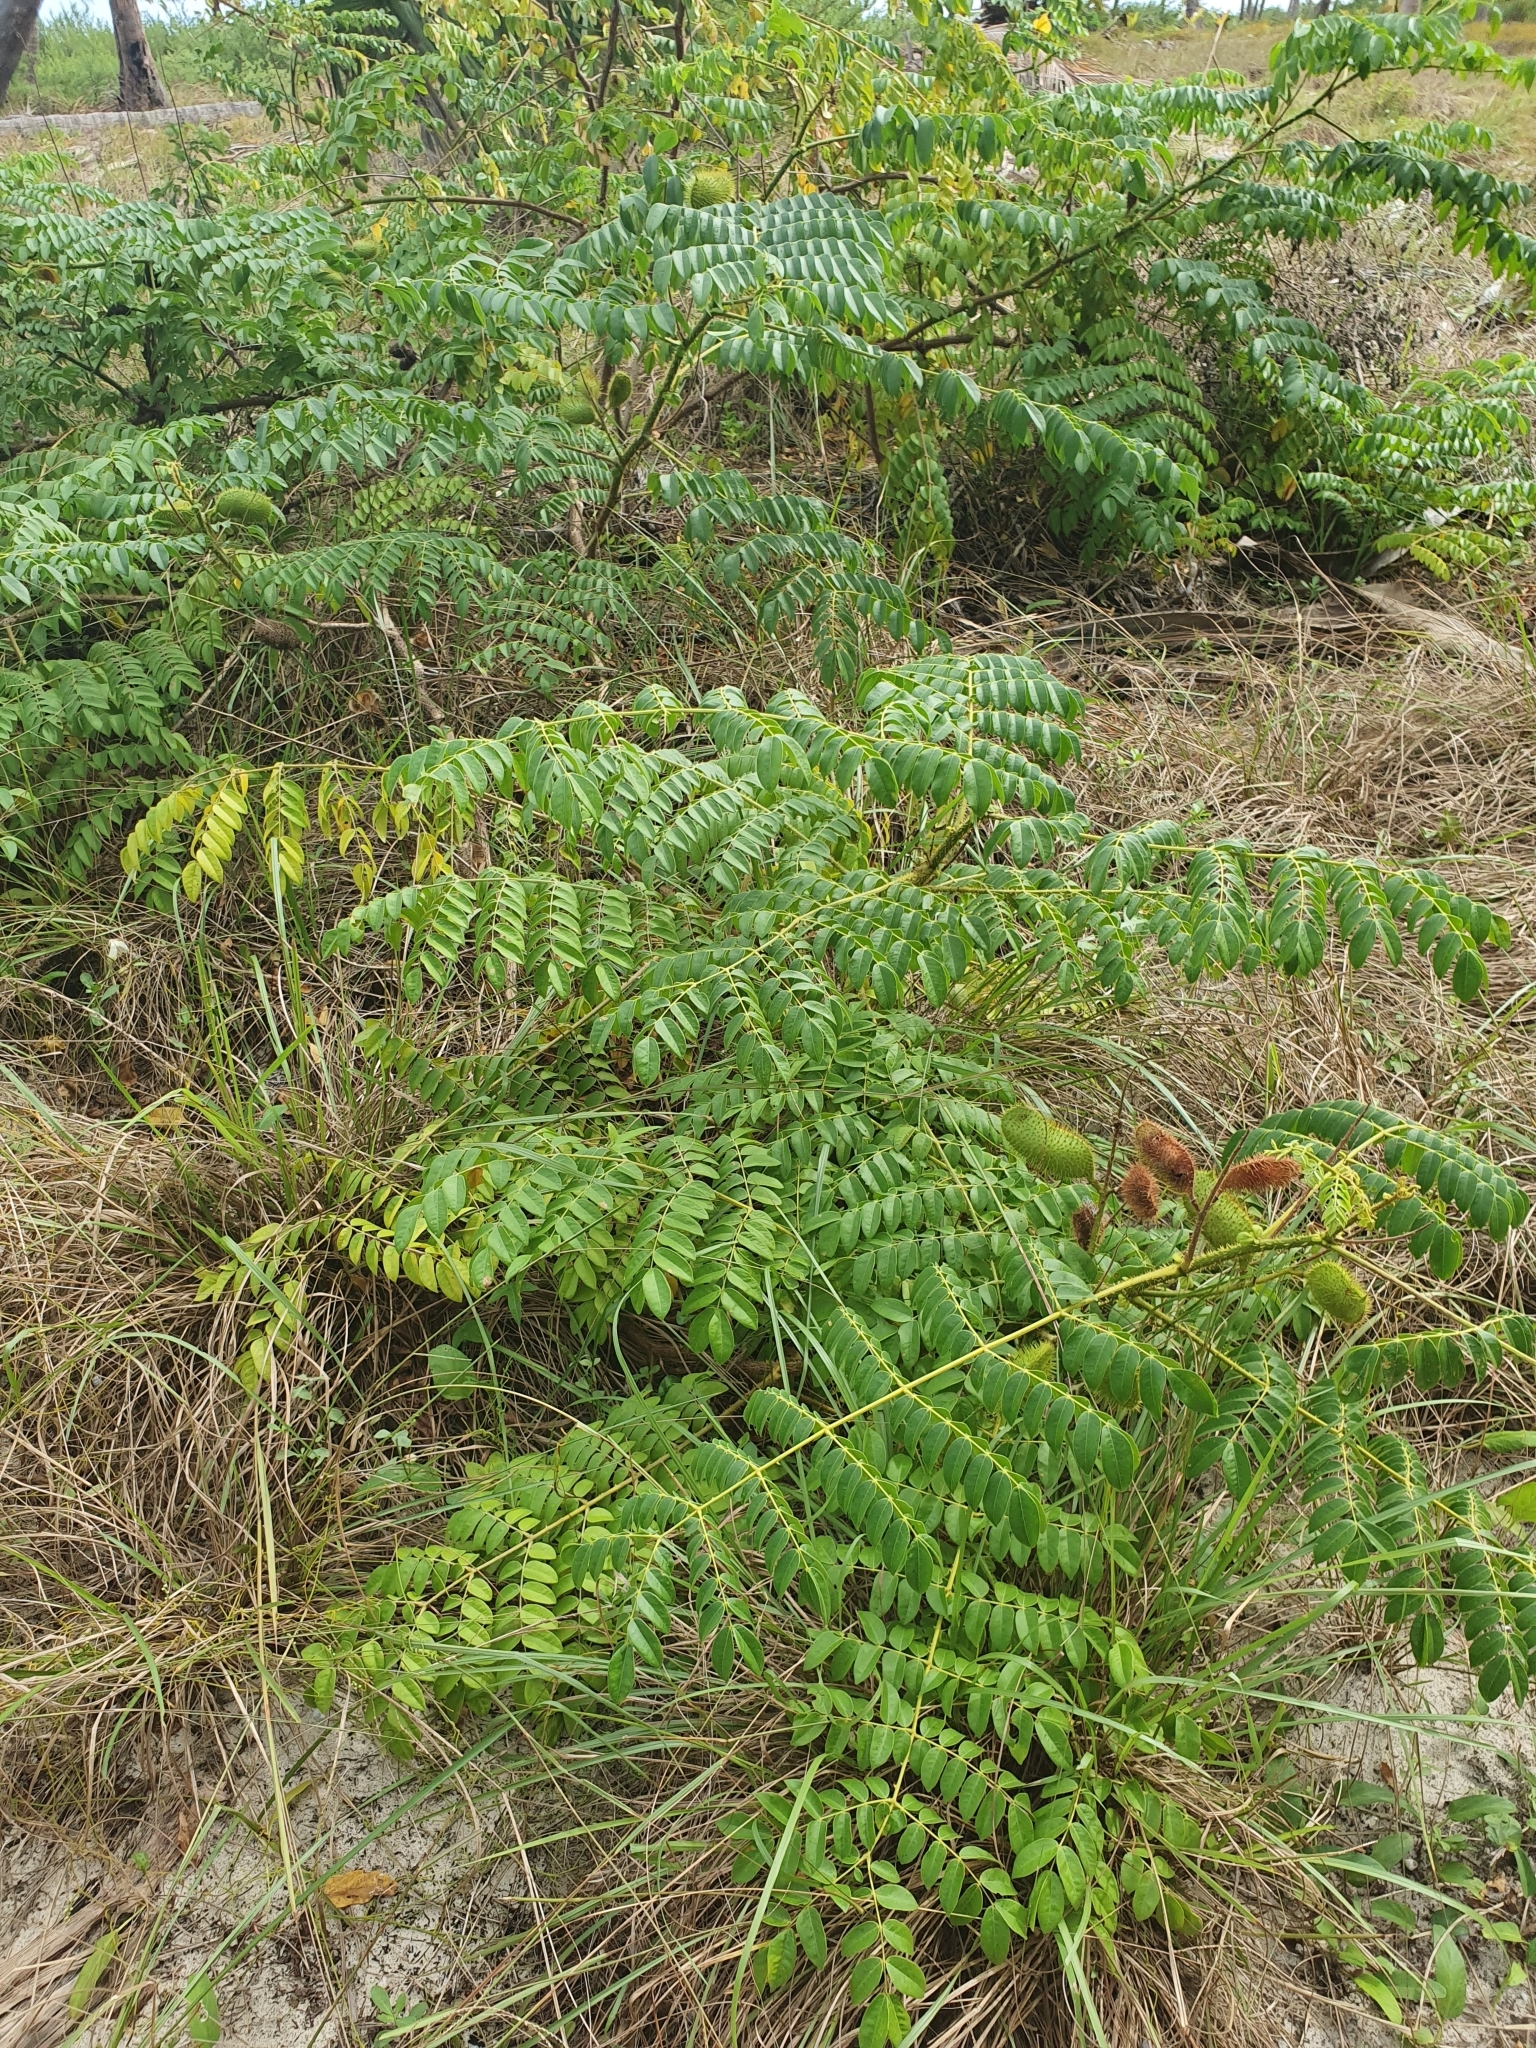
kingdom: Plantae
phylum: Tracheophyta
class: Magnoliopsida
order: Fabales
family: Fabaceae
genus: Guilandina
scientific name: Guilandina bonduc
